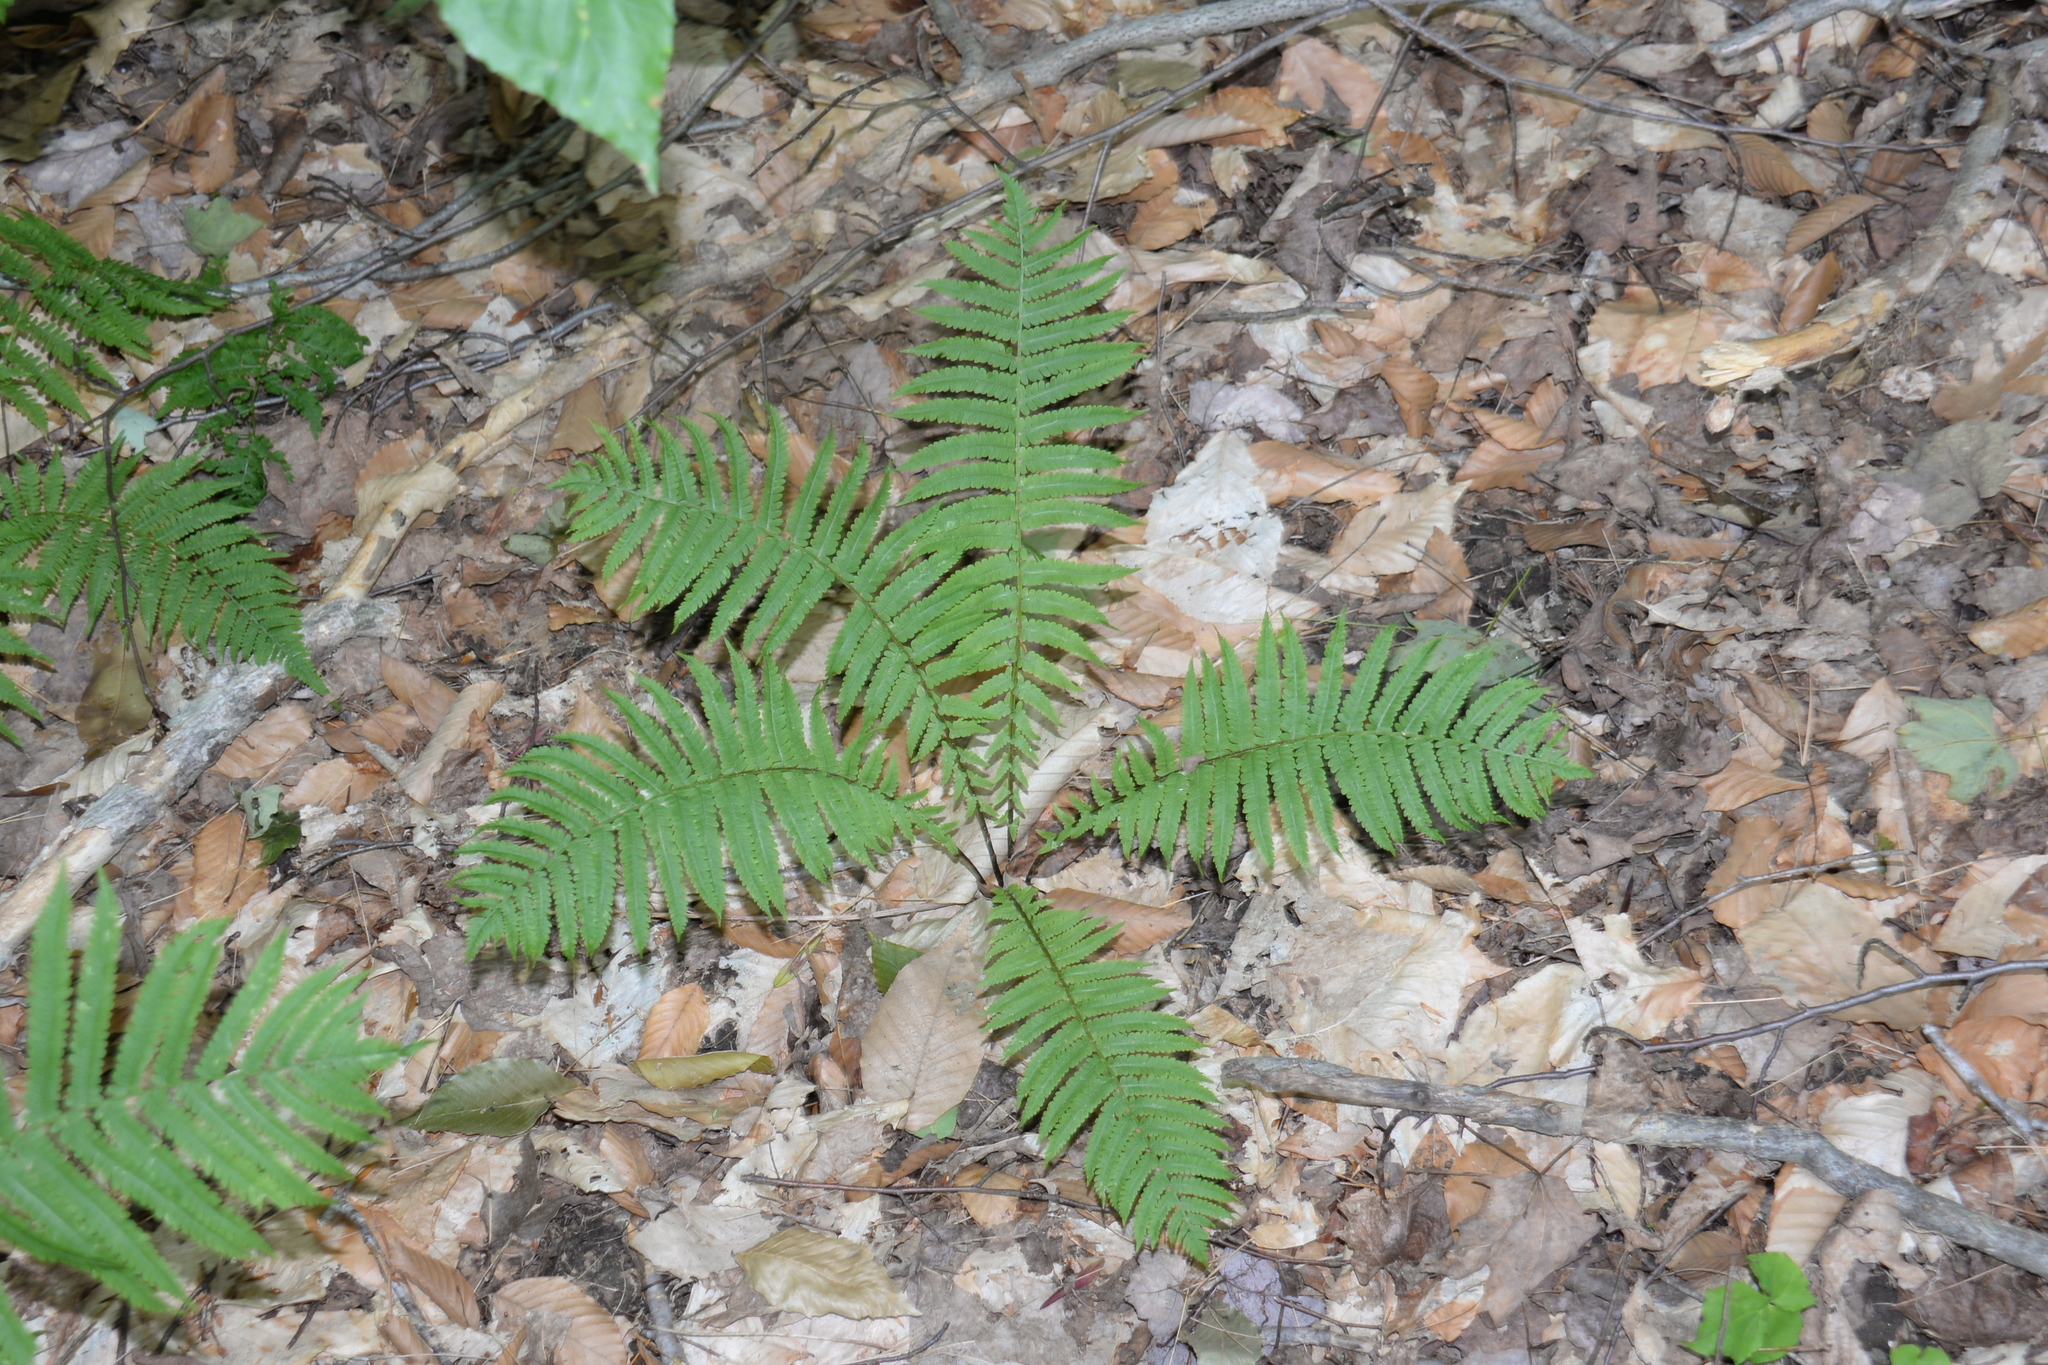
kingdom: Plantae
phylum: Tracheophyta
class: Polypodiopsida
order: Polypodiales
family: Onocleaceae
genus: Matteuccia
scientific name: Matteuccia struthiopteris
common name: Ostrich fern
